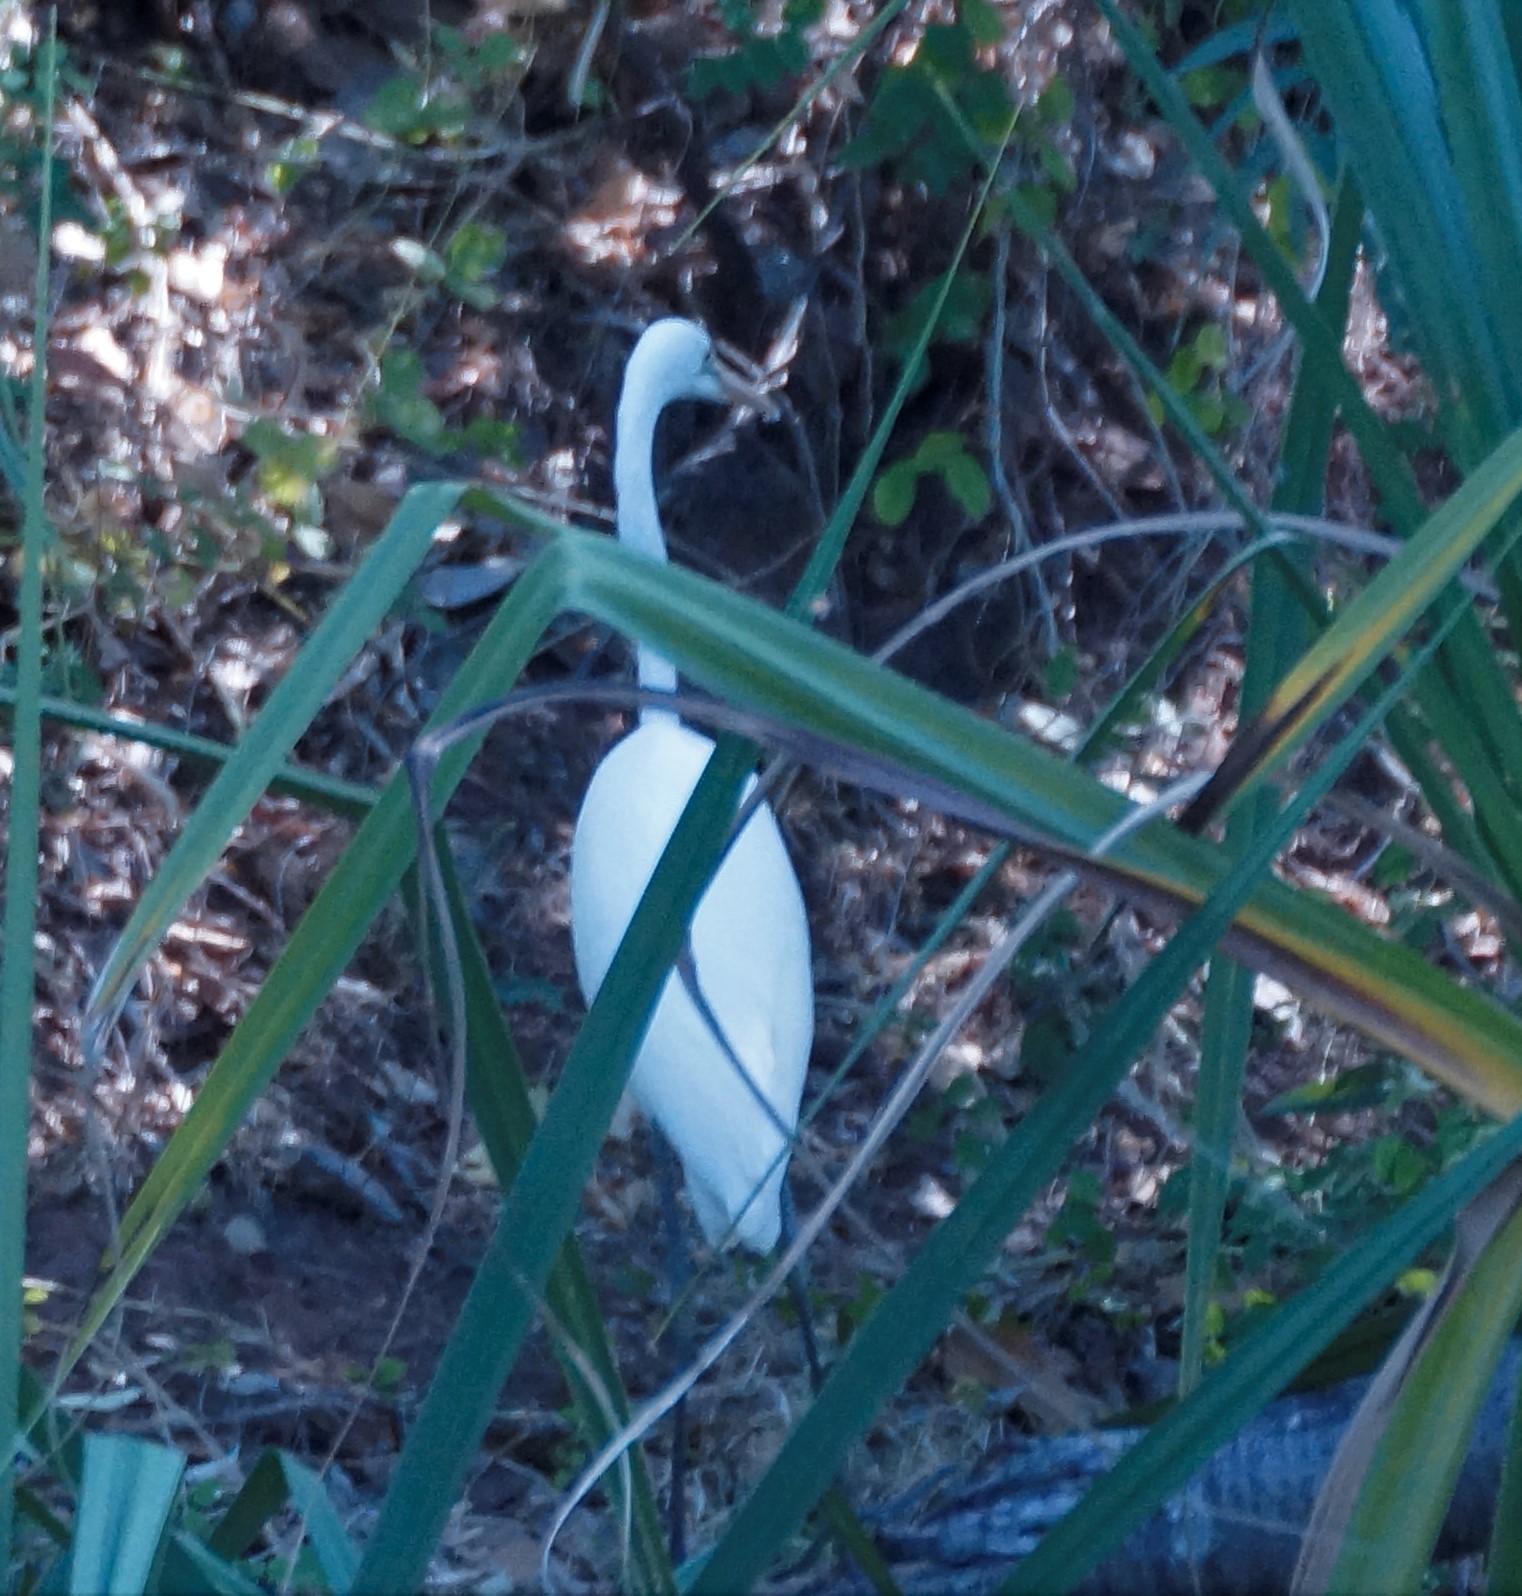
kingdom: Animalia
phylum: Chordata
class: Aves
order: Pelecaniformes
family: Ardeidae
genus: Ardea
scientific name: Ardea alba
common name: Great egret
